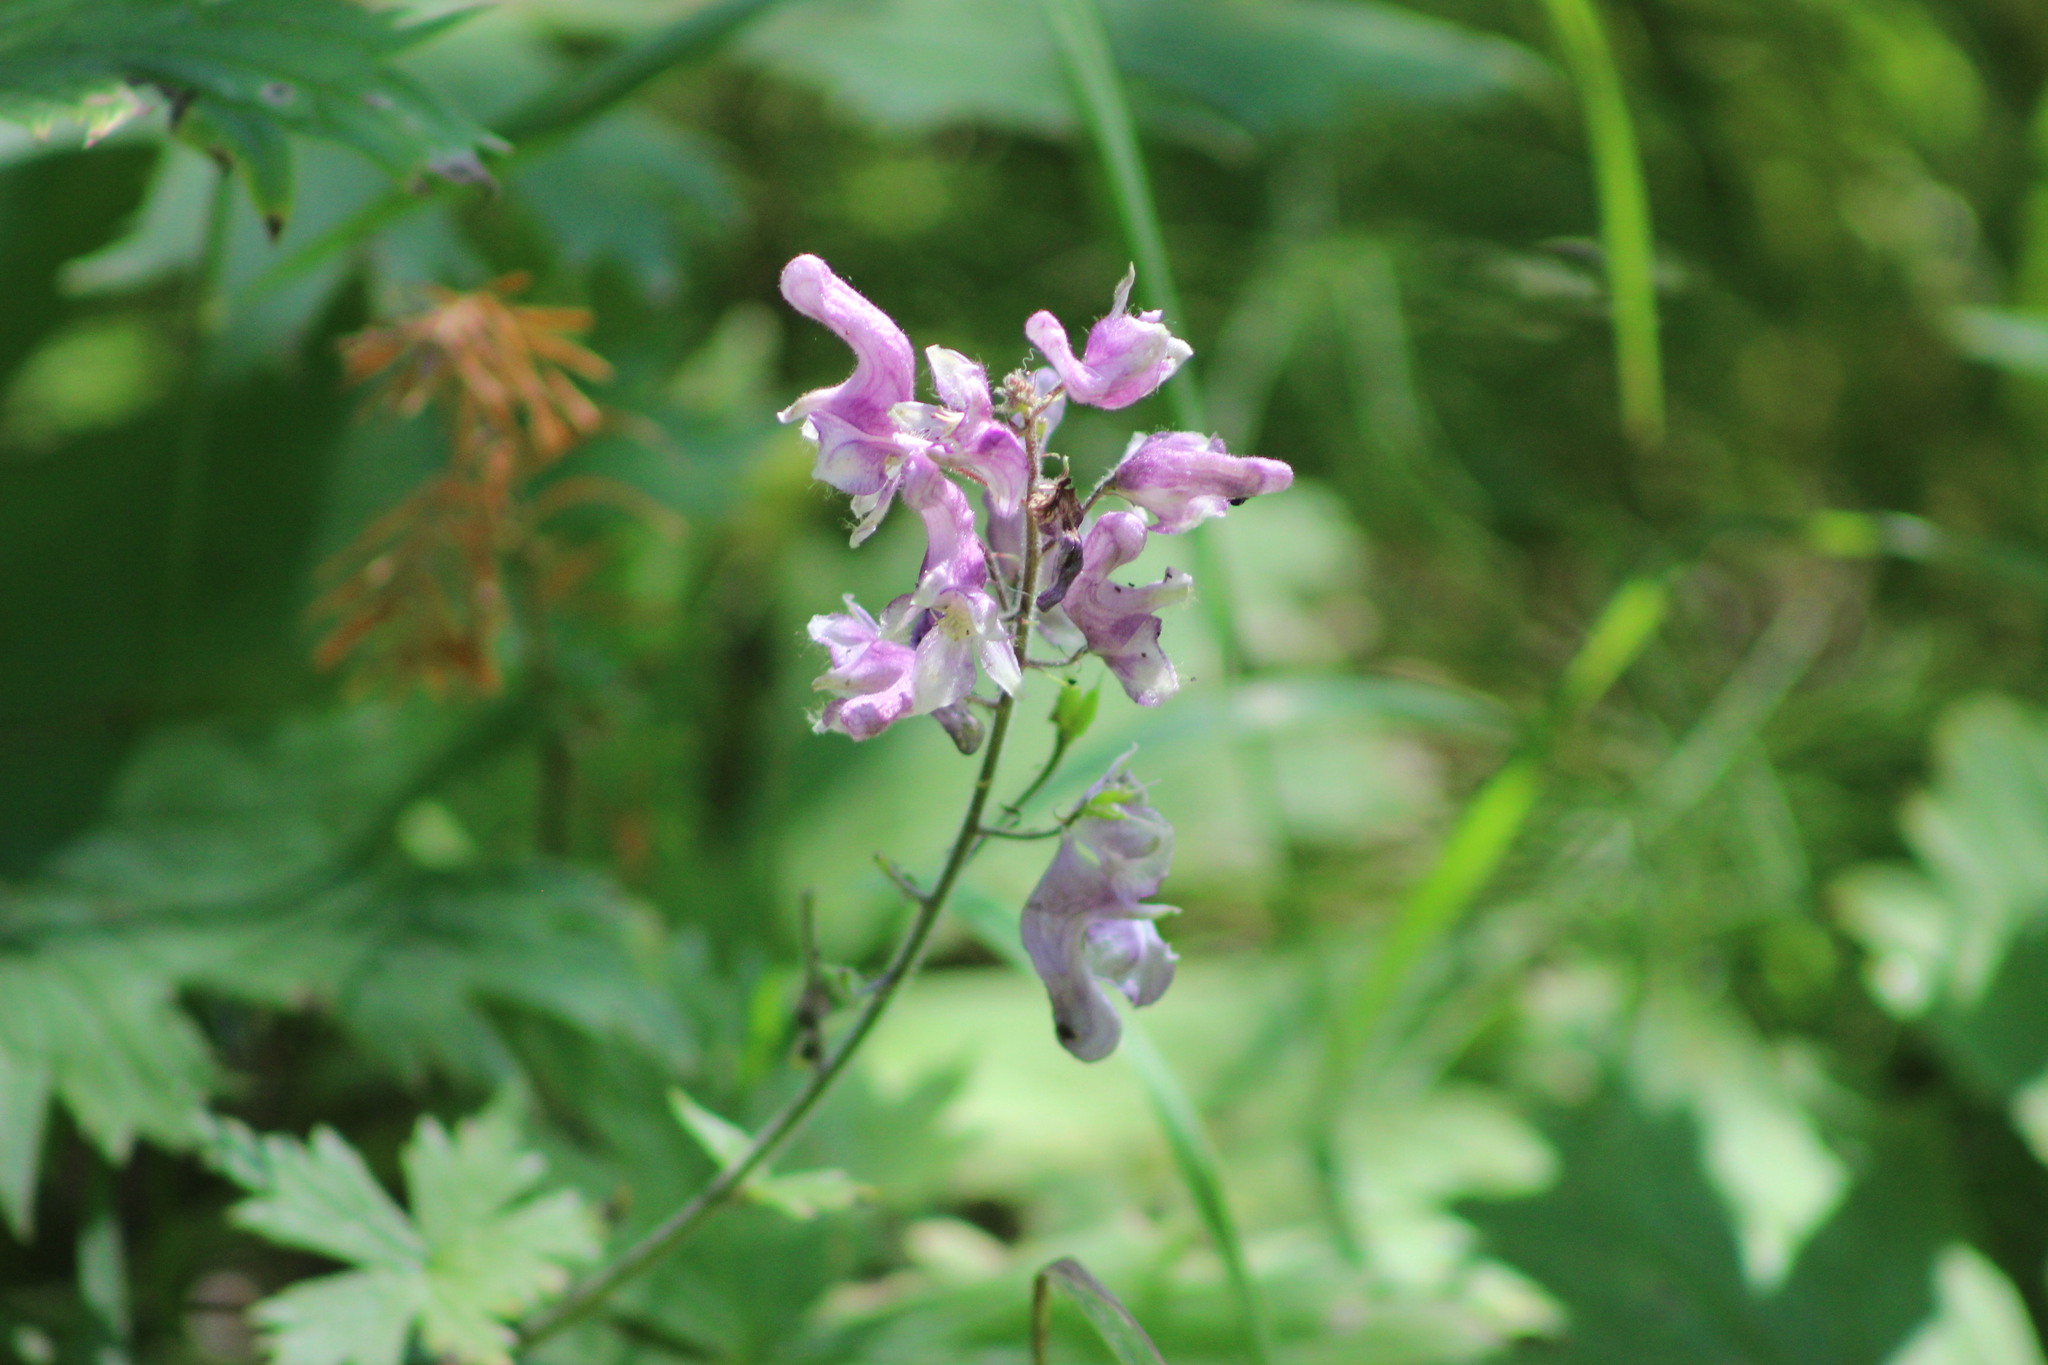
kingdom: Plantae
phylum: Tracheophyta
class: Magnoliopsida
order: Ranunculales
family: Ranunculaceae
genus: Aconitum
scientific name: Aconitum septentrionale
